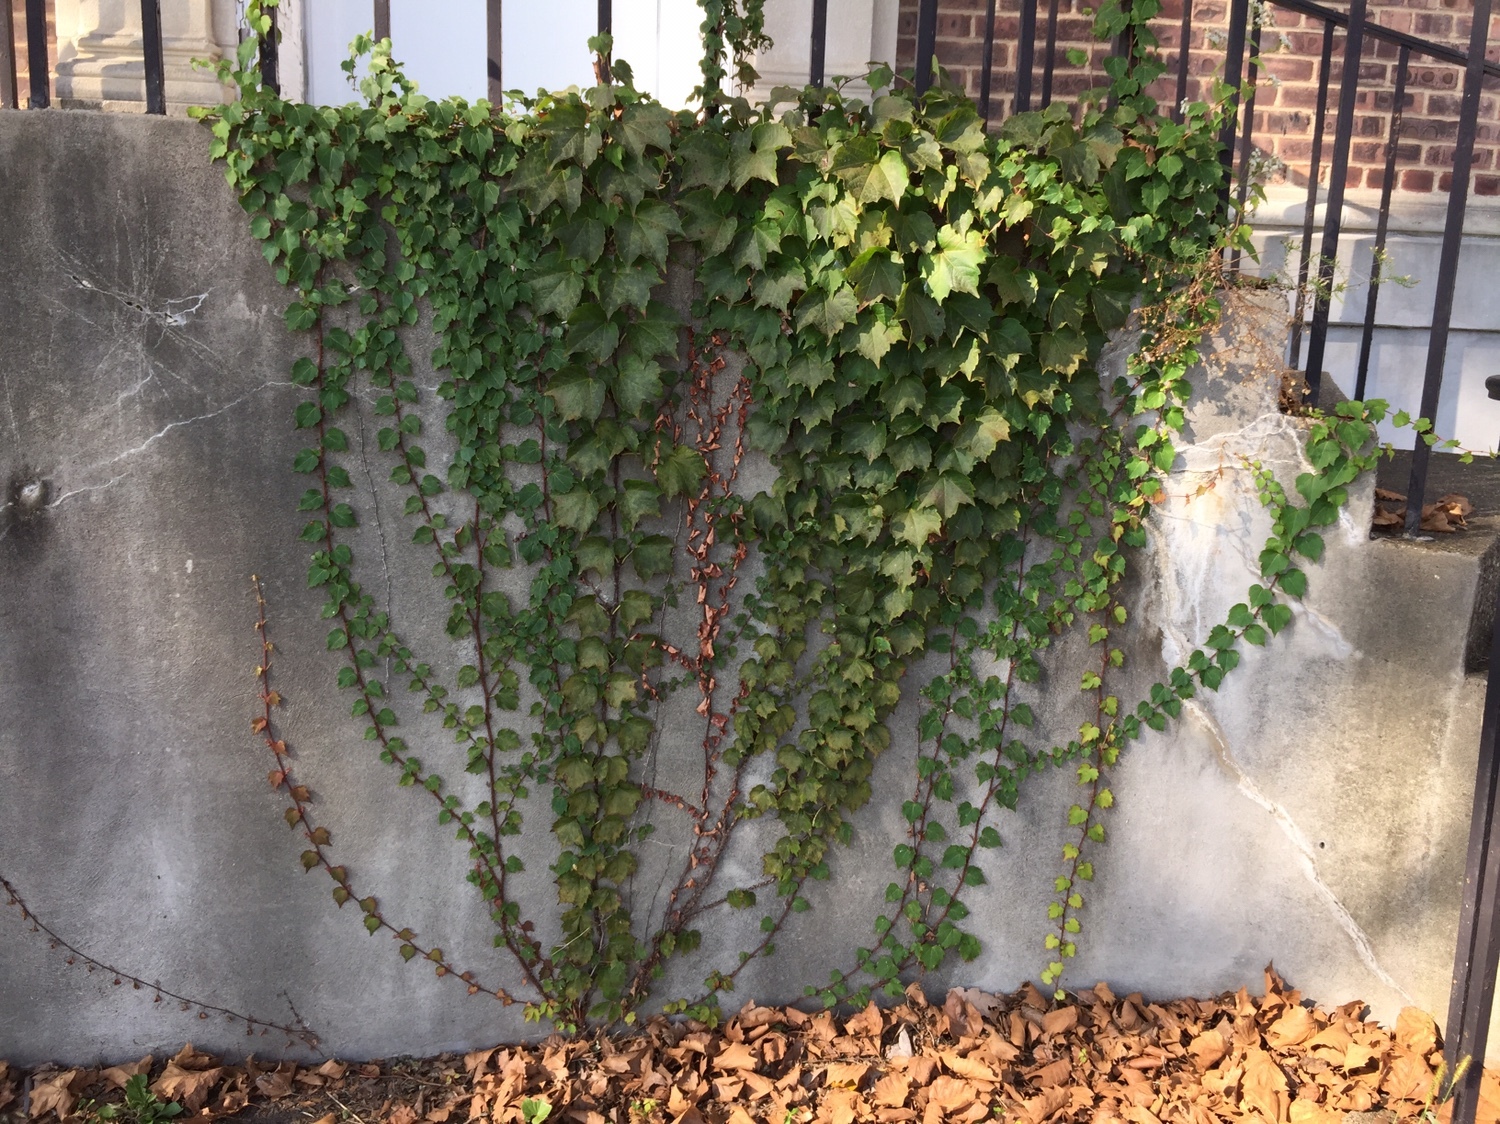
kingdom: Plantae
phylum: Tracheophyta
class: Magnoliopsida
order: Vitales
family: Vitaceae
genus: Parthenocissus
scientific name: Parthenocissus tricuspidata
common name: Boston ivy
